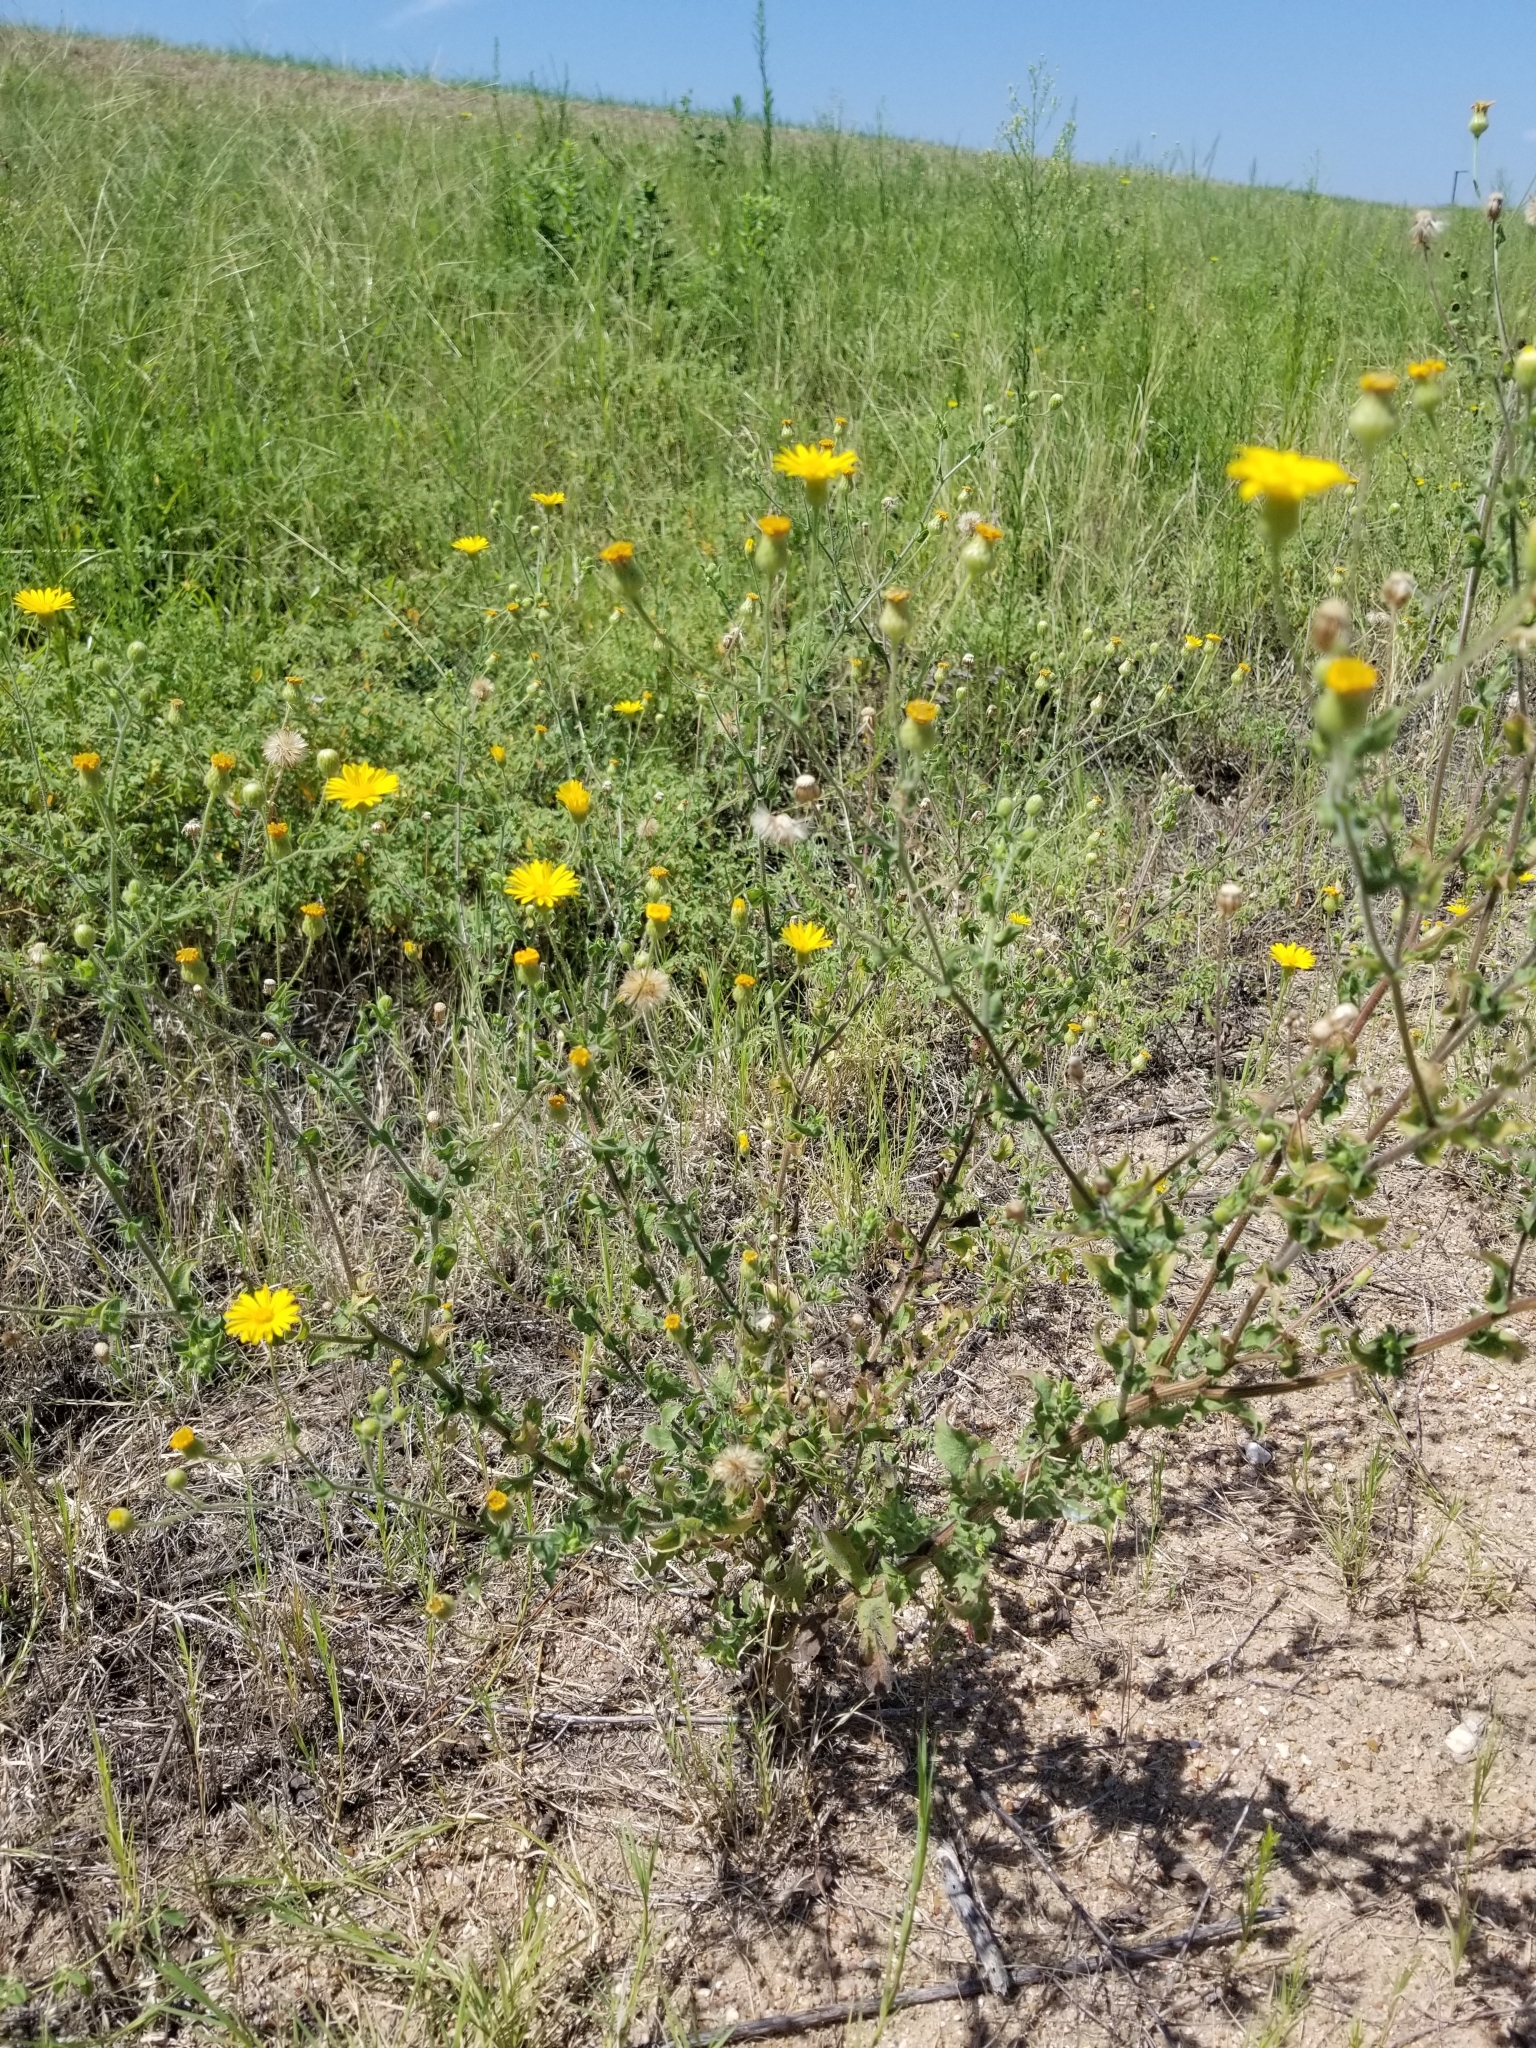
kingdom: Plantae
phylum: Tracheophyta
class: Magnoliopsida
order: Asterales
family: Asteraceae
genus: Heterotheca
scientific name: Heterotheca subaxillaris
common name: Camphorweed
